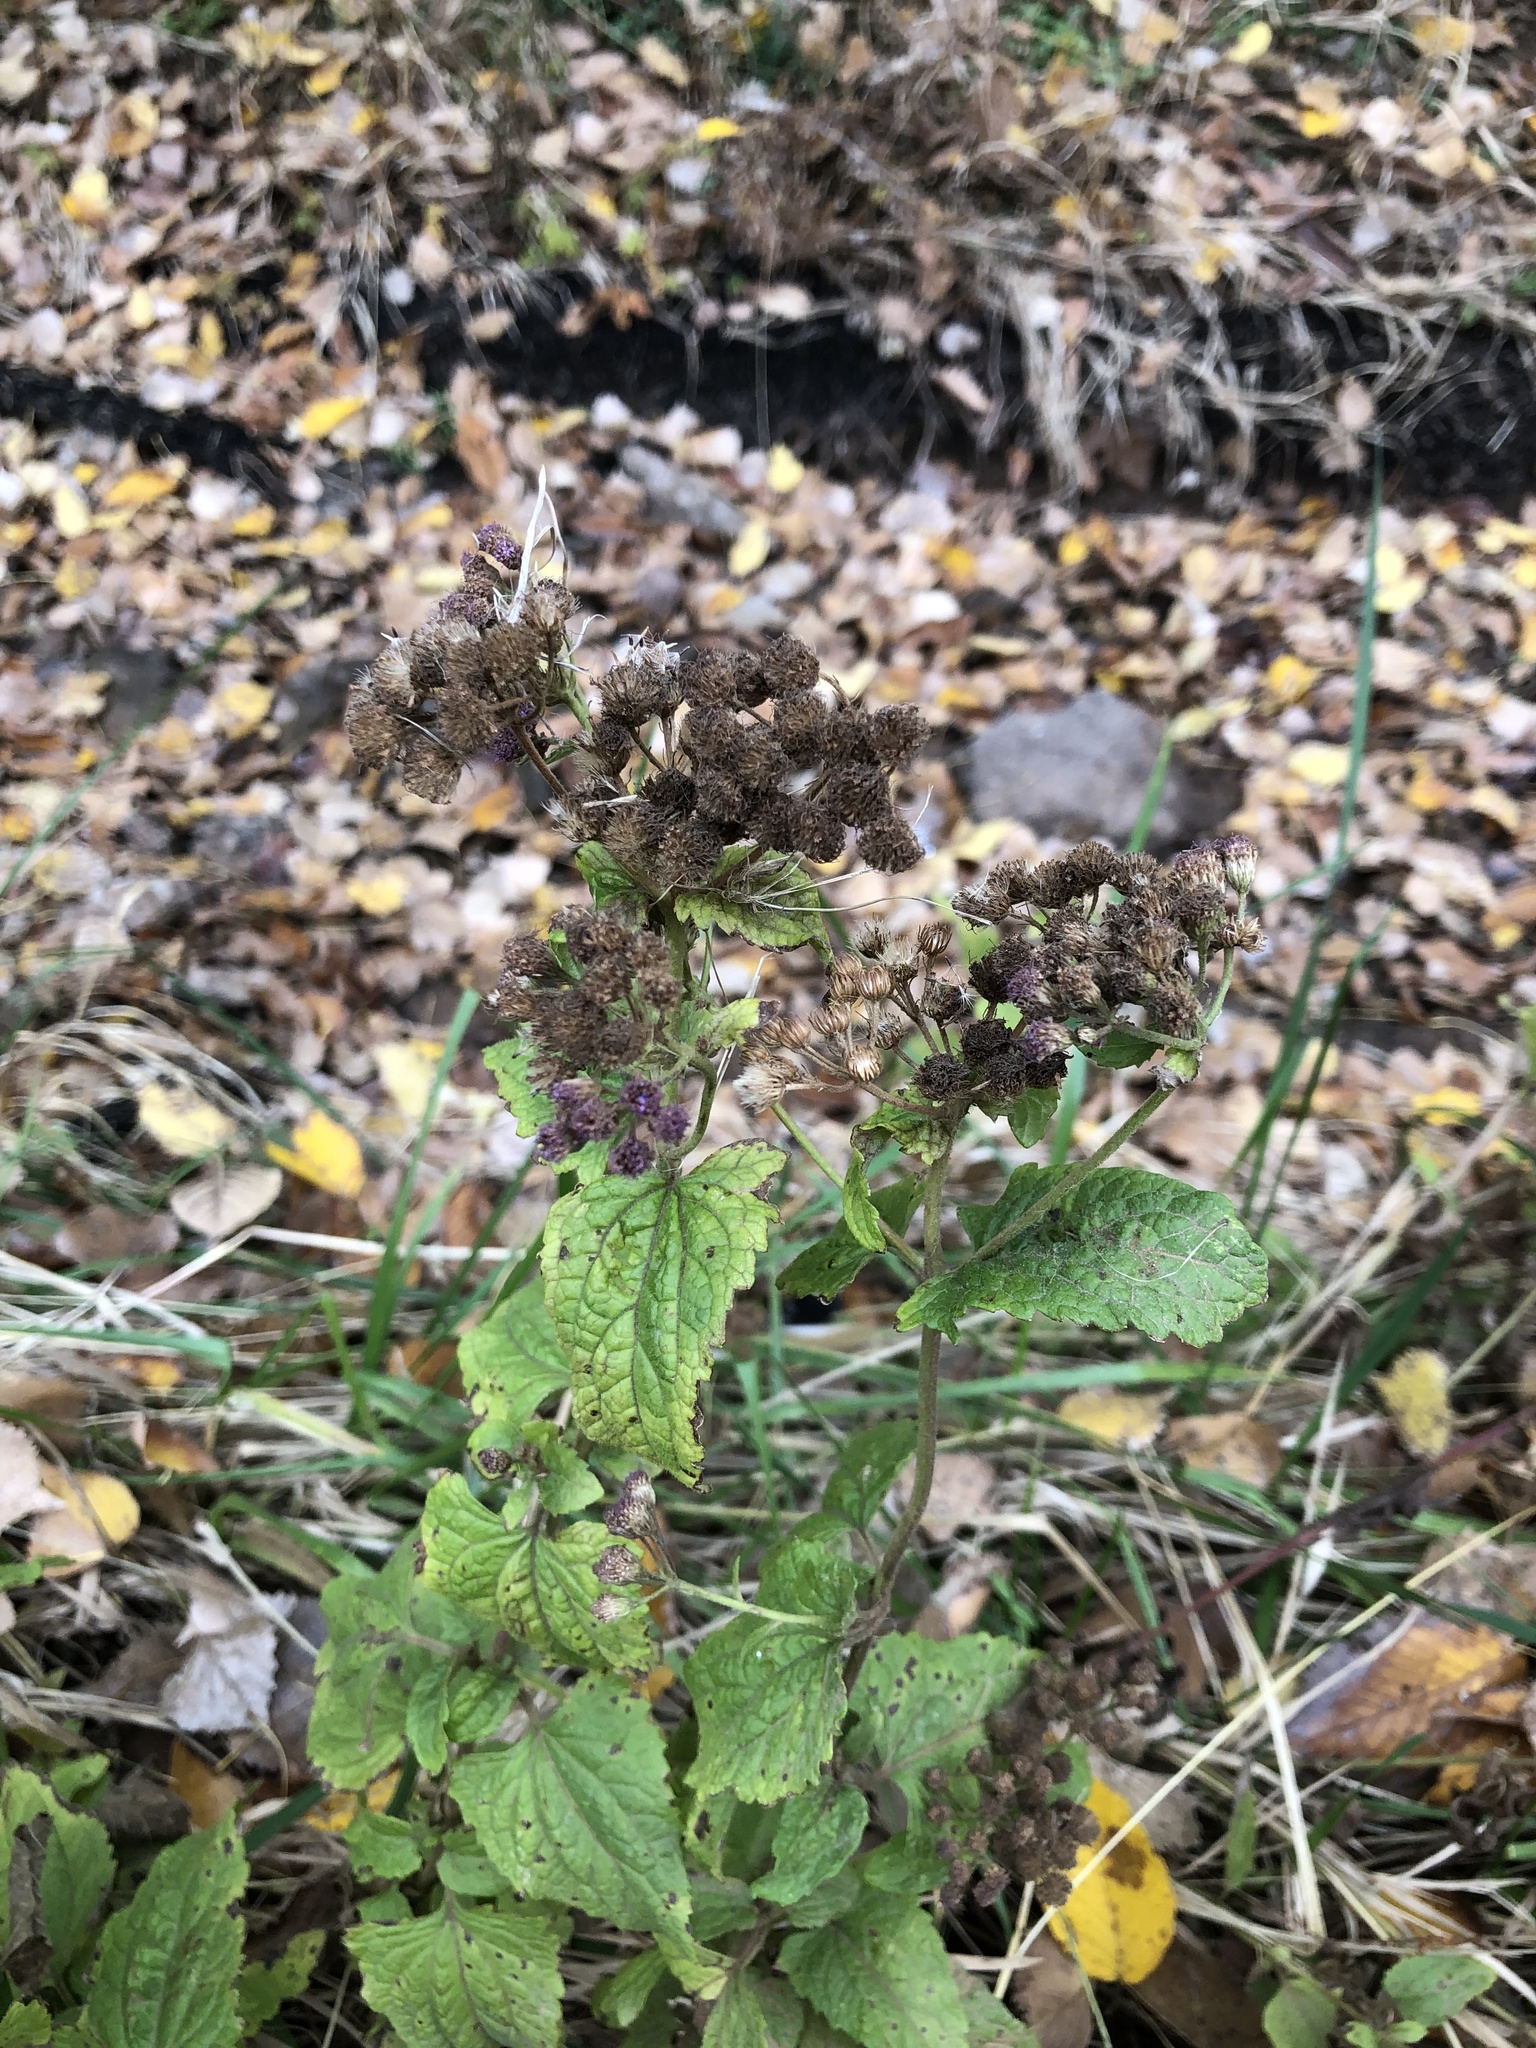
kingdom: Plantae
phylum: Tracheophyta
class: Magnoliopsida
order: Asterales
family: Asteraceae
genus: Conoclinium
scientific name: Conoclinium coelestinum
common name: Blue mistflower
